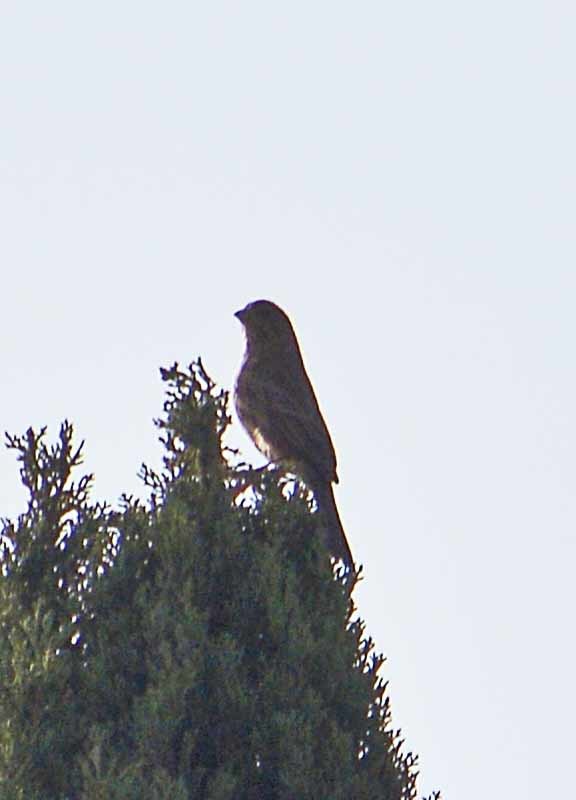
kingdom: Animalia
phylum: Chordata
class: Aves
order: Passeriformes
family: Fringillidae
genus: Haemorhous
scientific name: Haemorhous mexicanus
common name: House finch
